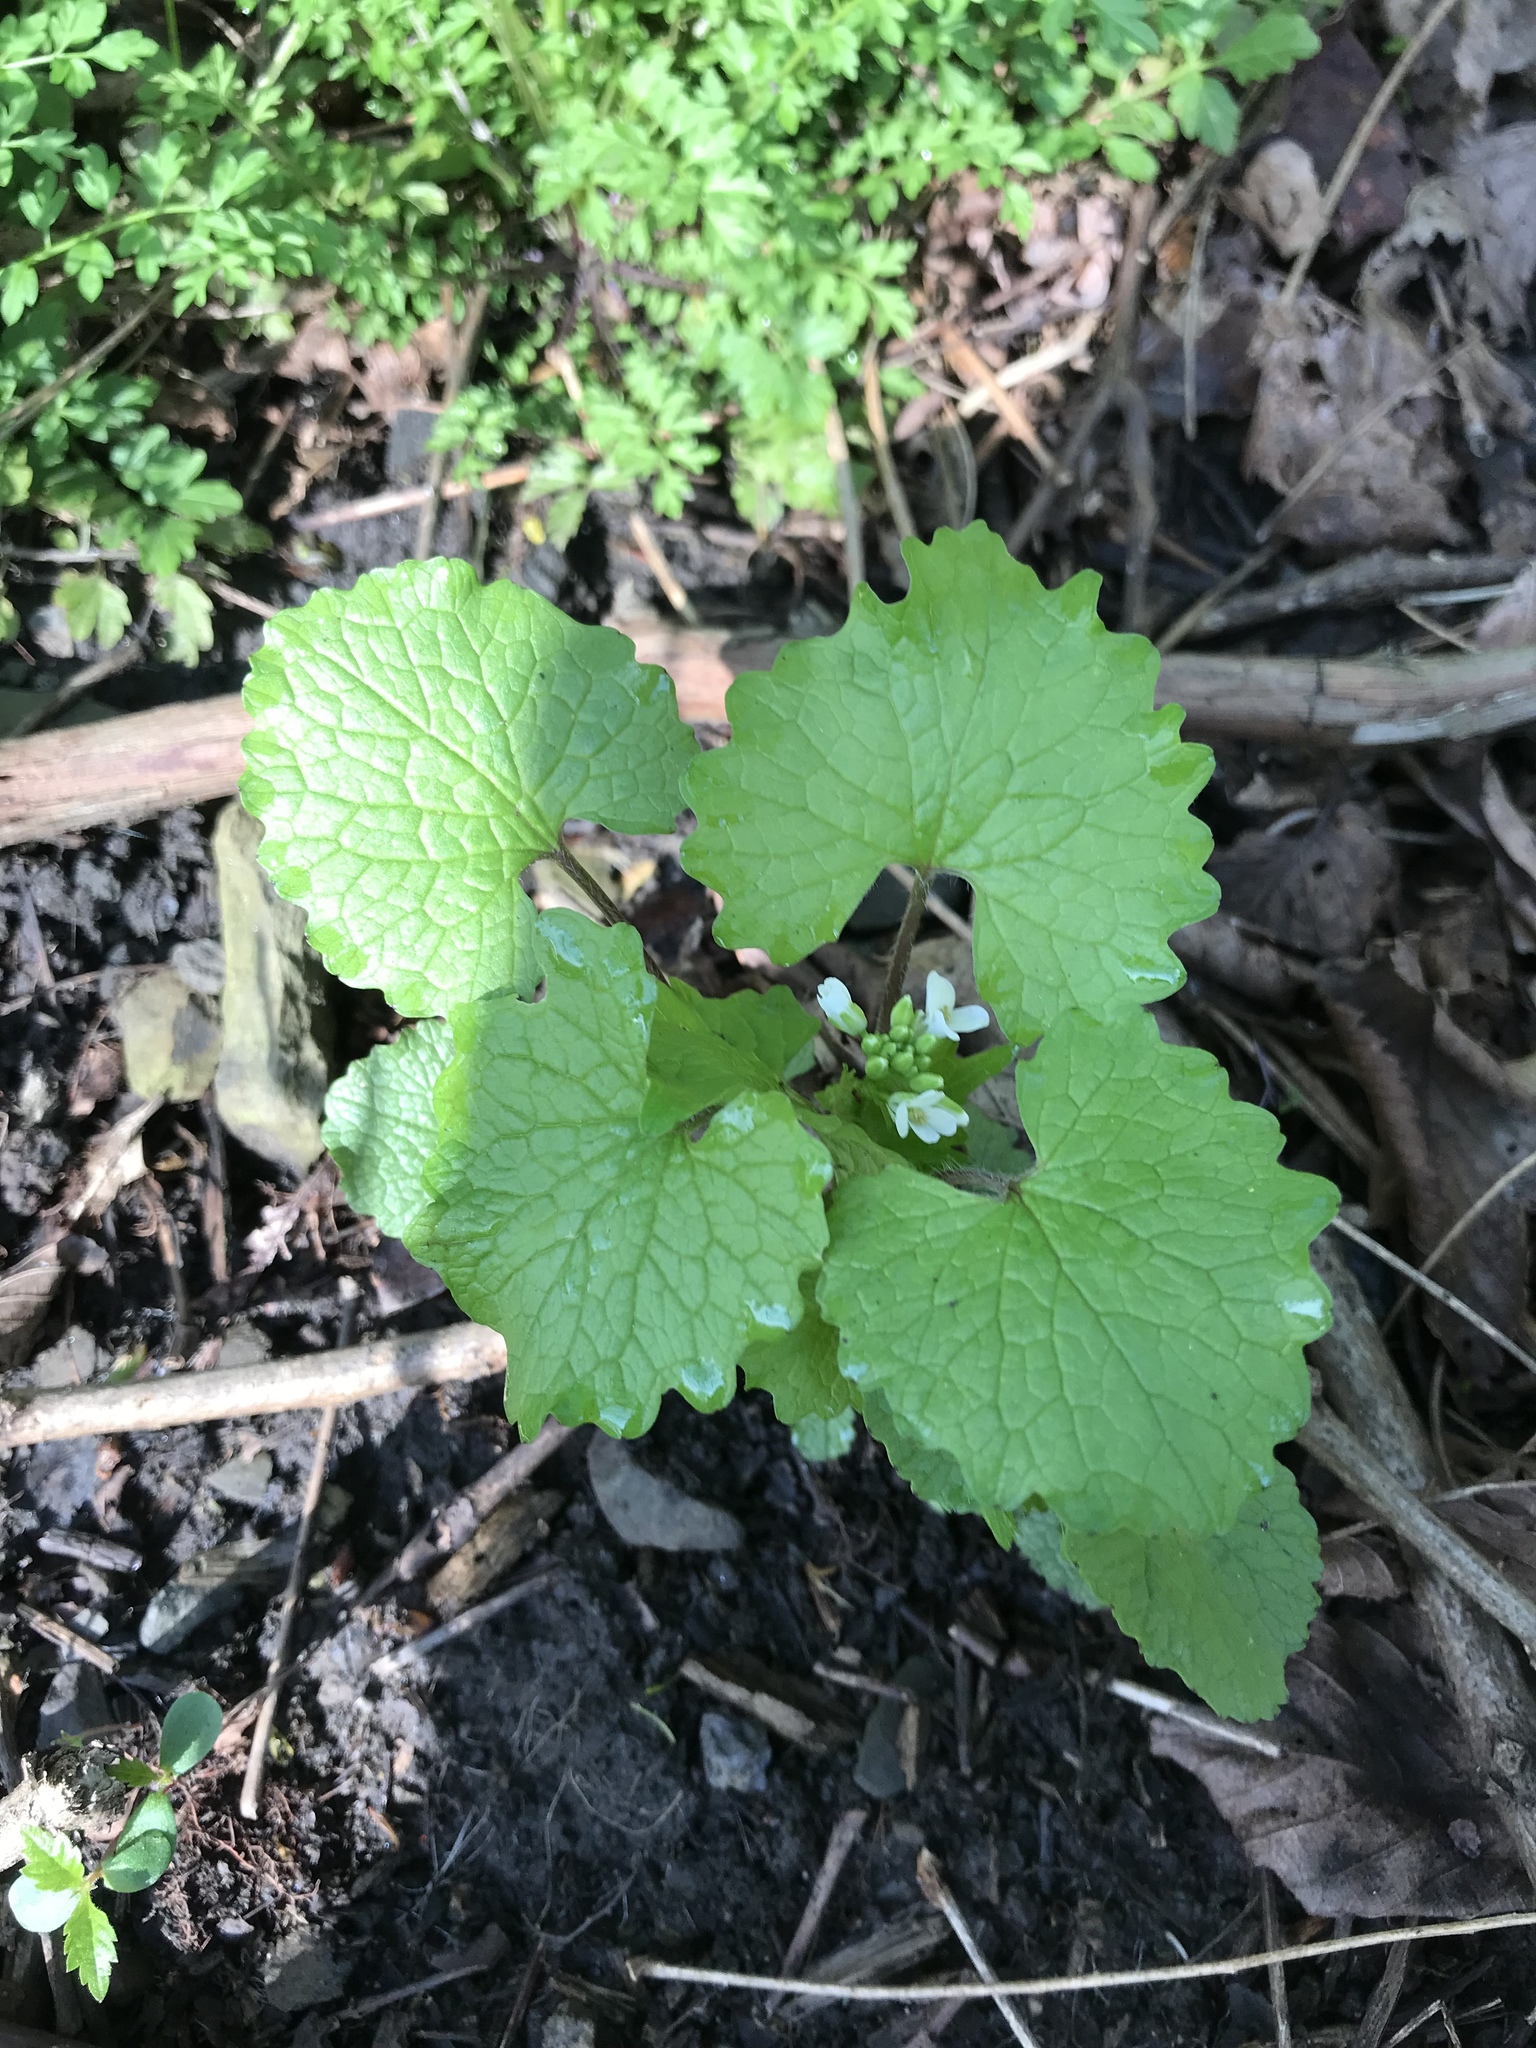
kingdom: Plantae
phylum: Tracheophyta
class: Magnoliopsida
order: Brassicales
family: Brassicaceae
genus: Alliaria
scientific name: Alliaria petiolata
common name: Garlic mustard
